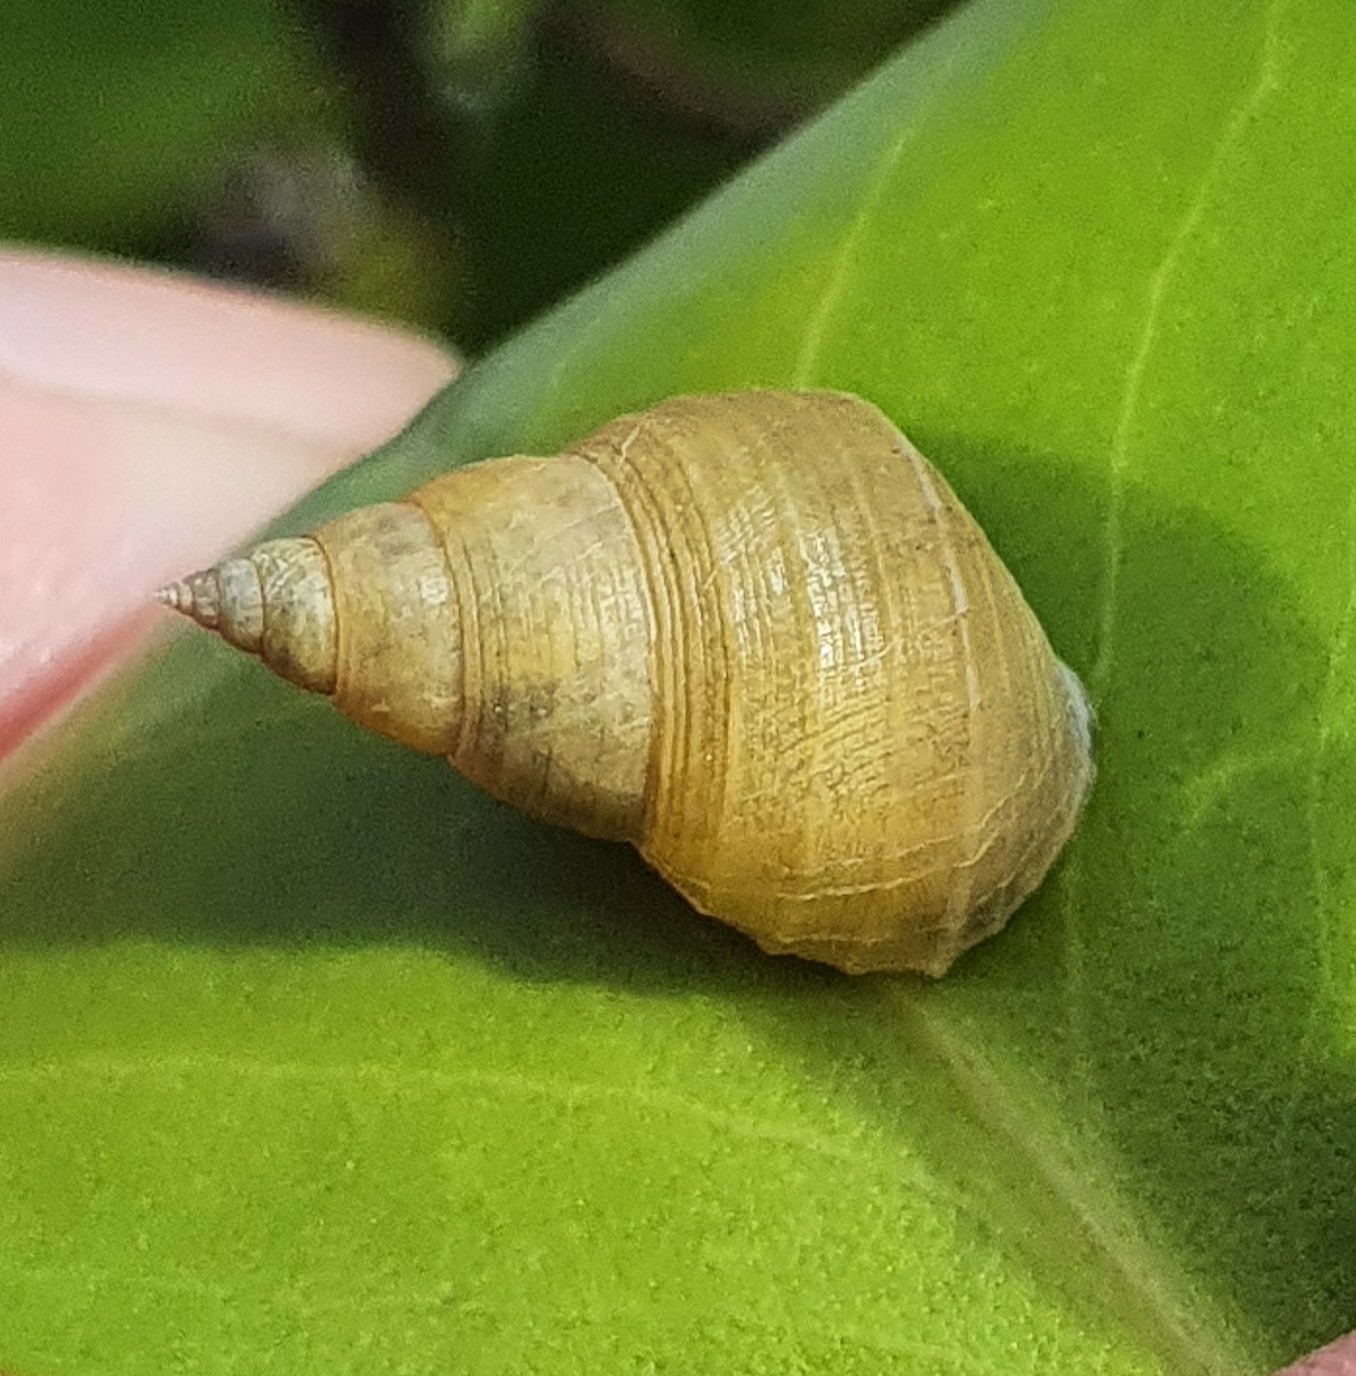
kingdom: Animalia
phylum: Mollusca
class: Gastropoda
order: Littorinimorpha
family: Littorinidae
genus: Littoraria
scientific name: Littoraria filosa
